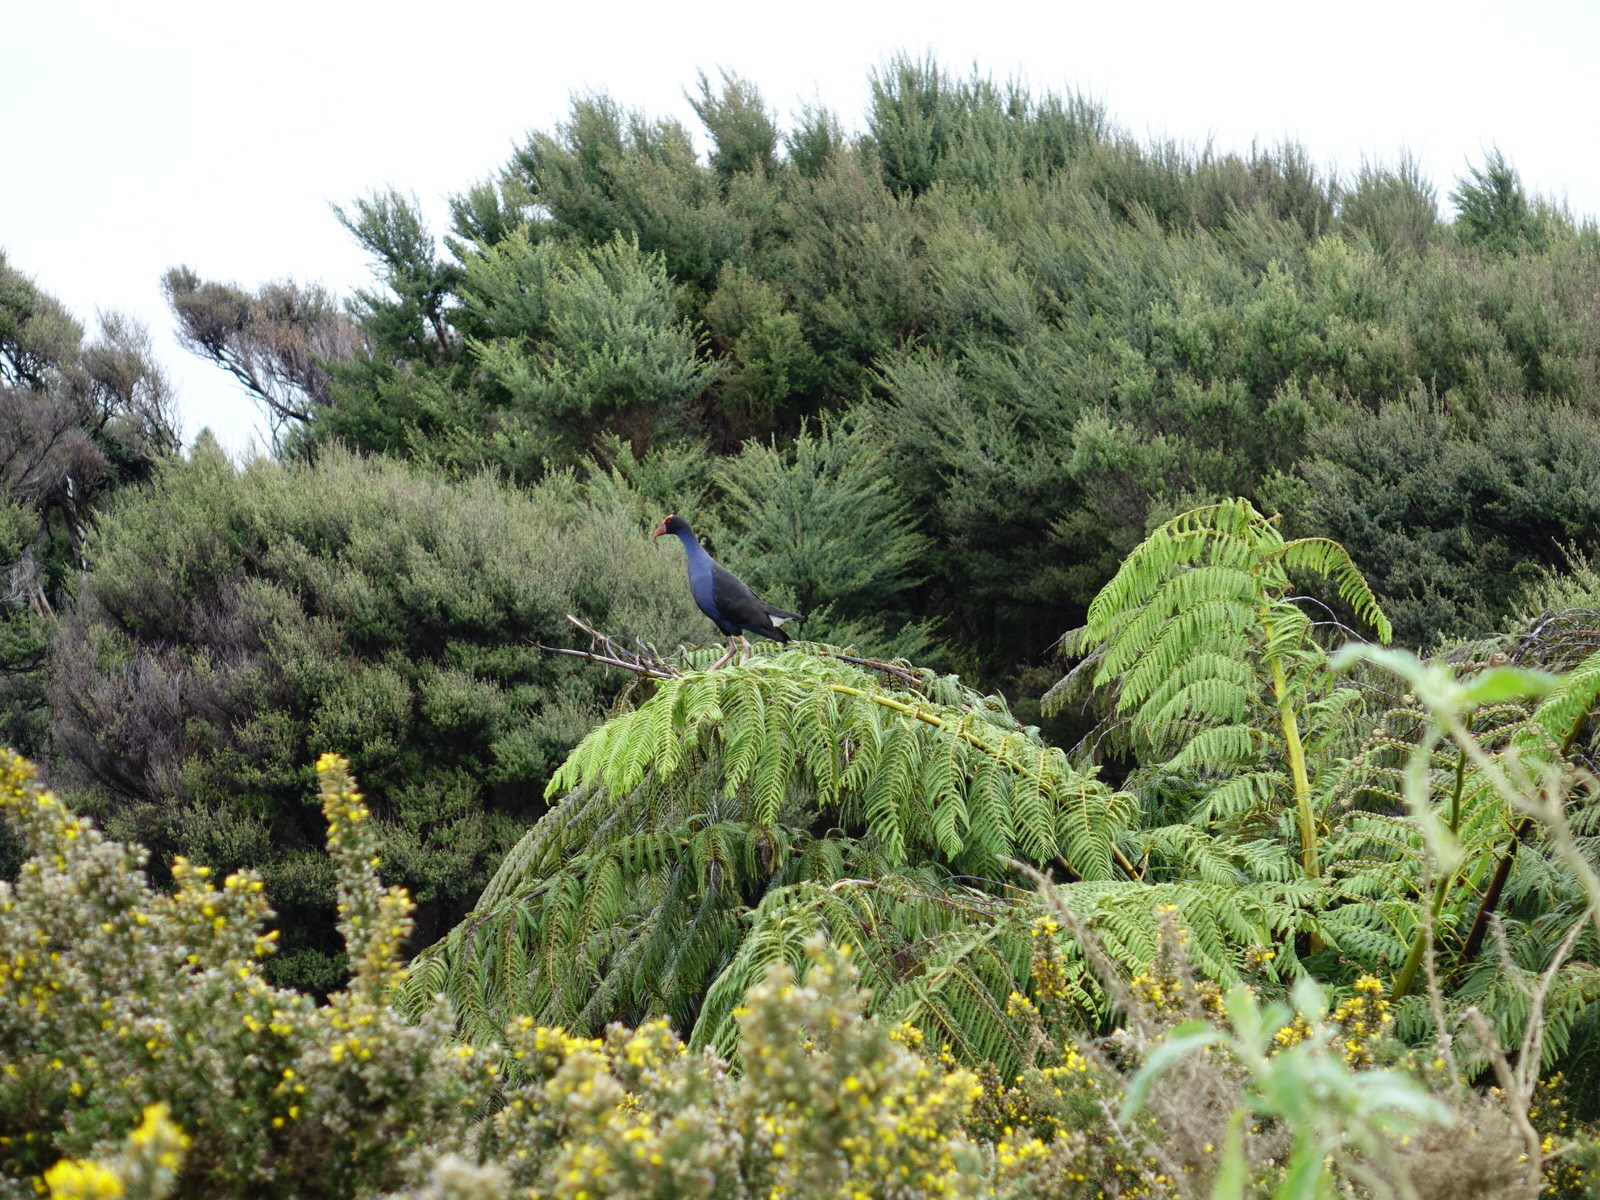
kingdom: Animalia
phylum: Chordata
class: Aves
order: Gruiformes
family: Rallidae
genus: Porphyrio
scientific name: Porphyrio melanotus
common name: Australasian swamphen
